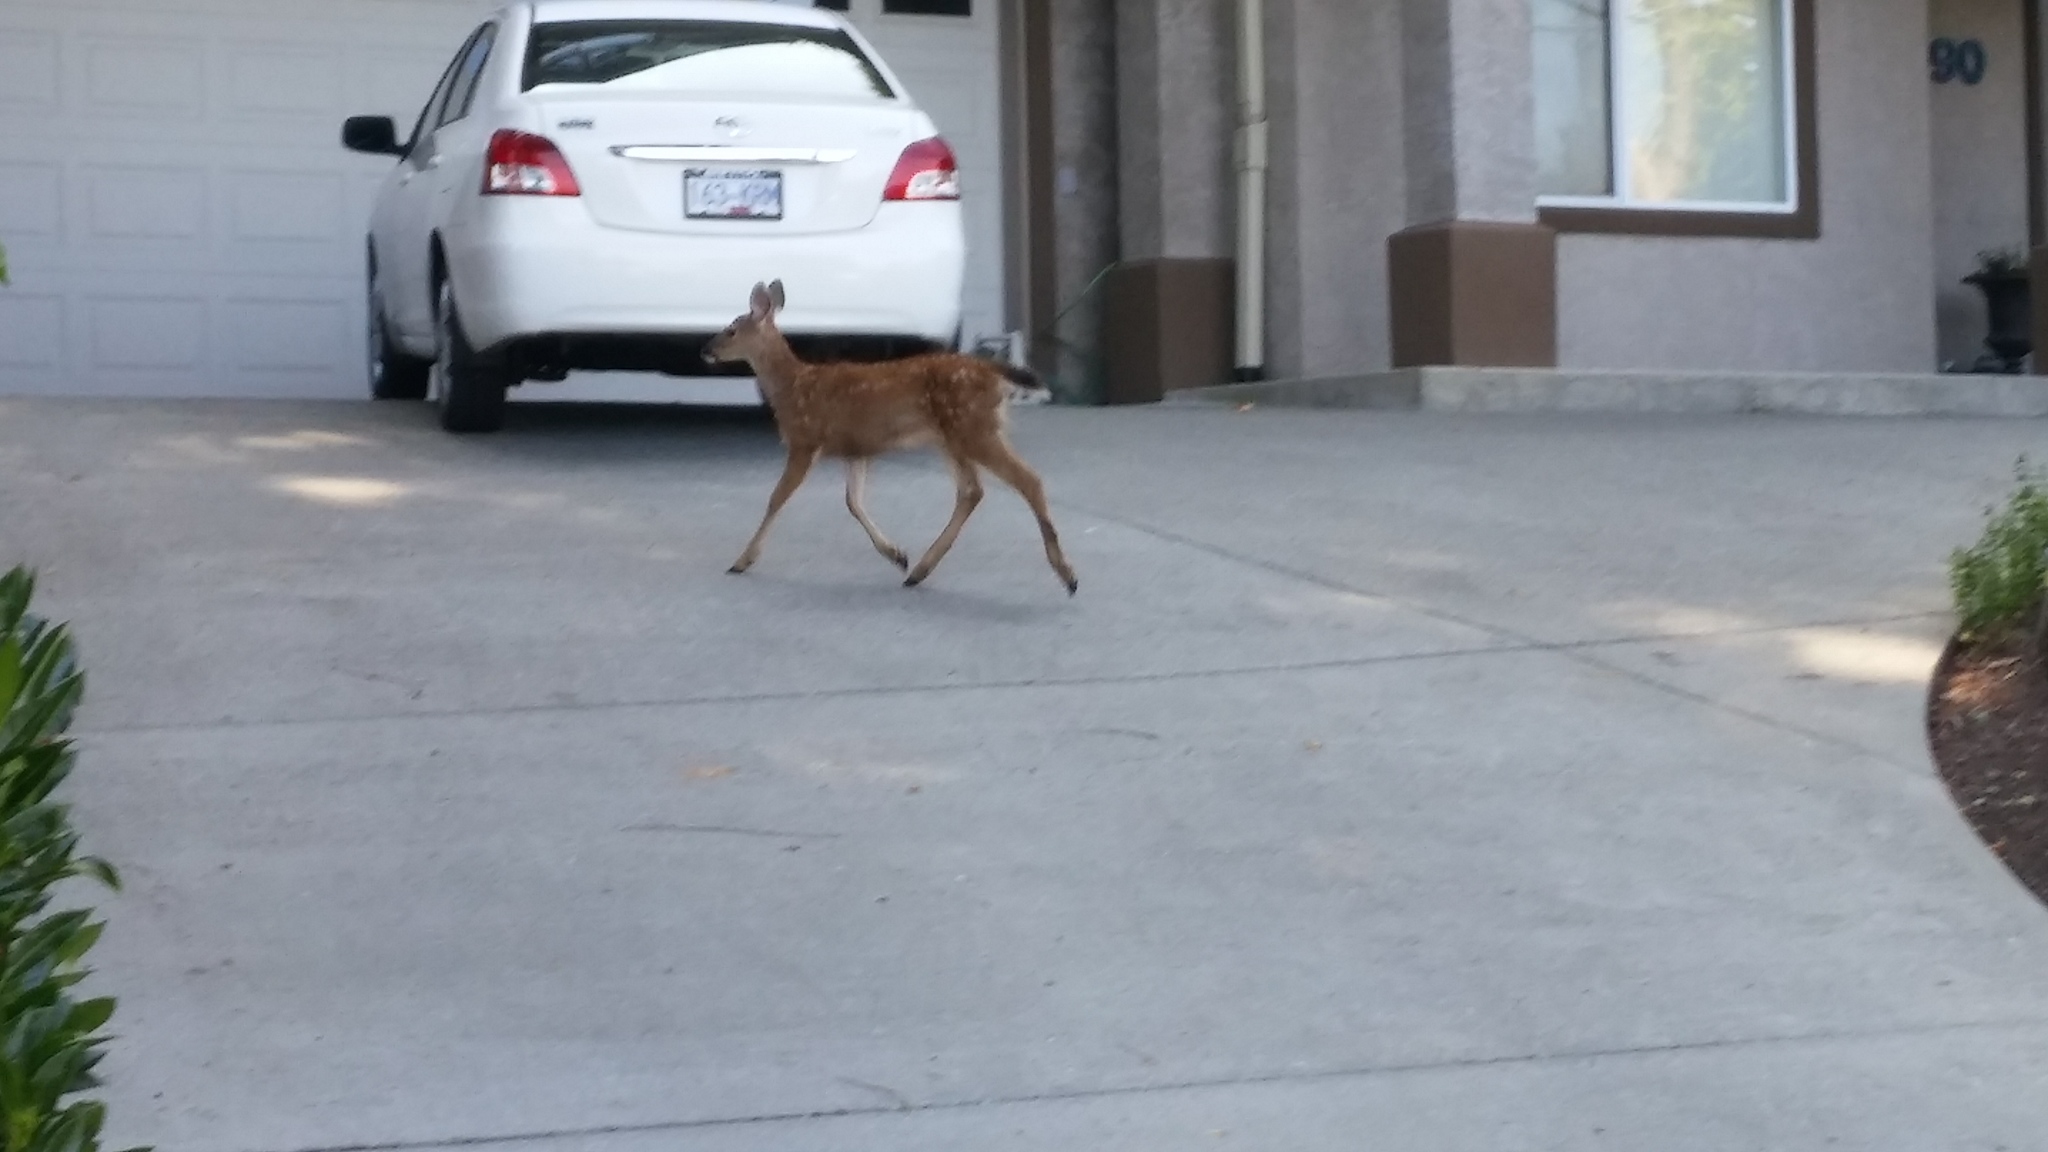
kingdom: Animalia
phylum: Chordata
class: Mammalia
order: Artiodactyla
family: Cervidae
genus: Odocoileus
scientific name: Odocoileus hemionus
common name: Mule deer
